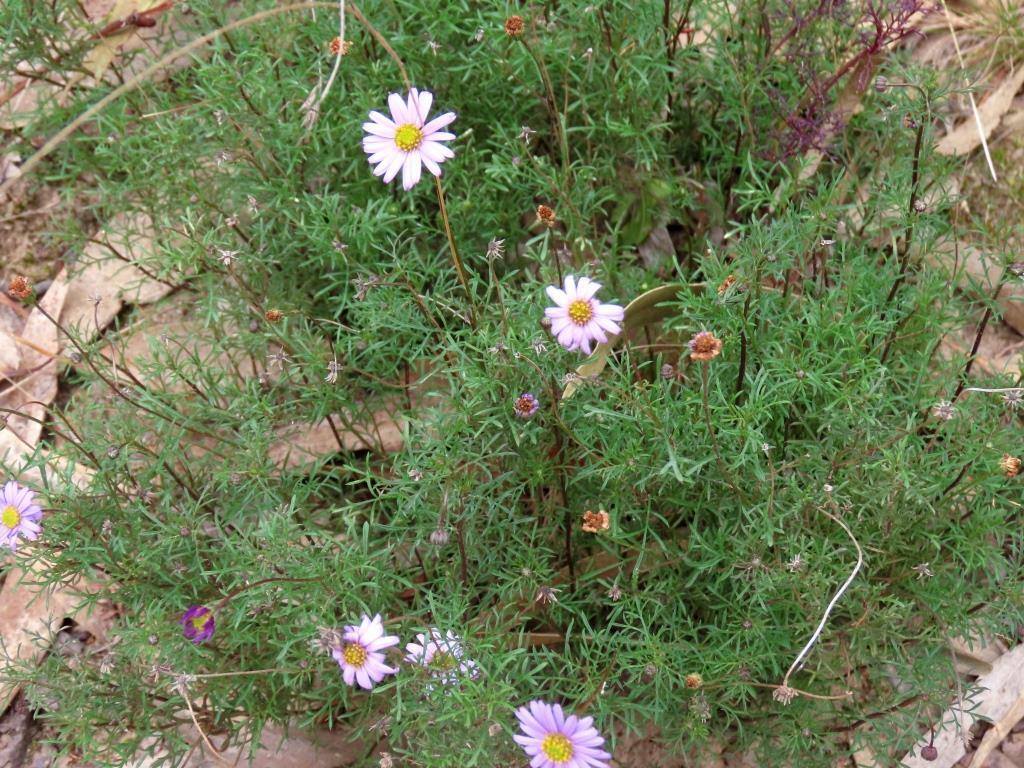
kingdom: Plantae
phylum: Tracheophyta
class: Magnoliopsida
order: Asterales
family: Asteraceae
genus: Brachyscome
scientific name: Brachyscome multifida
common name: Cut-leaf daisy
